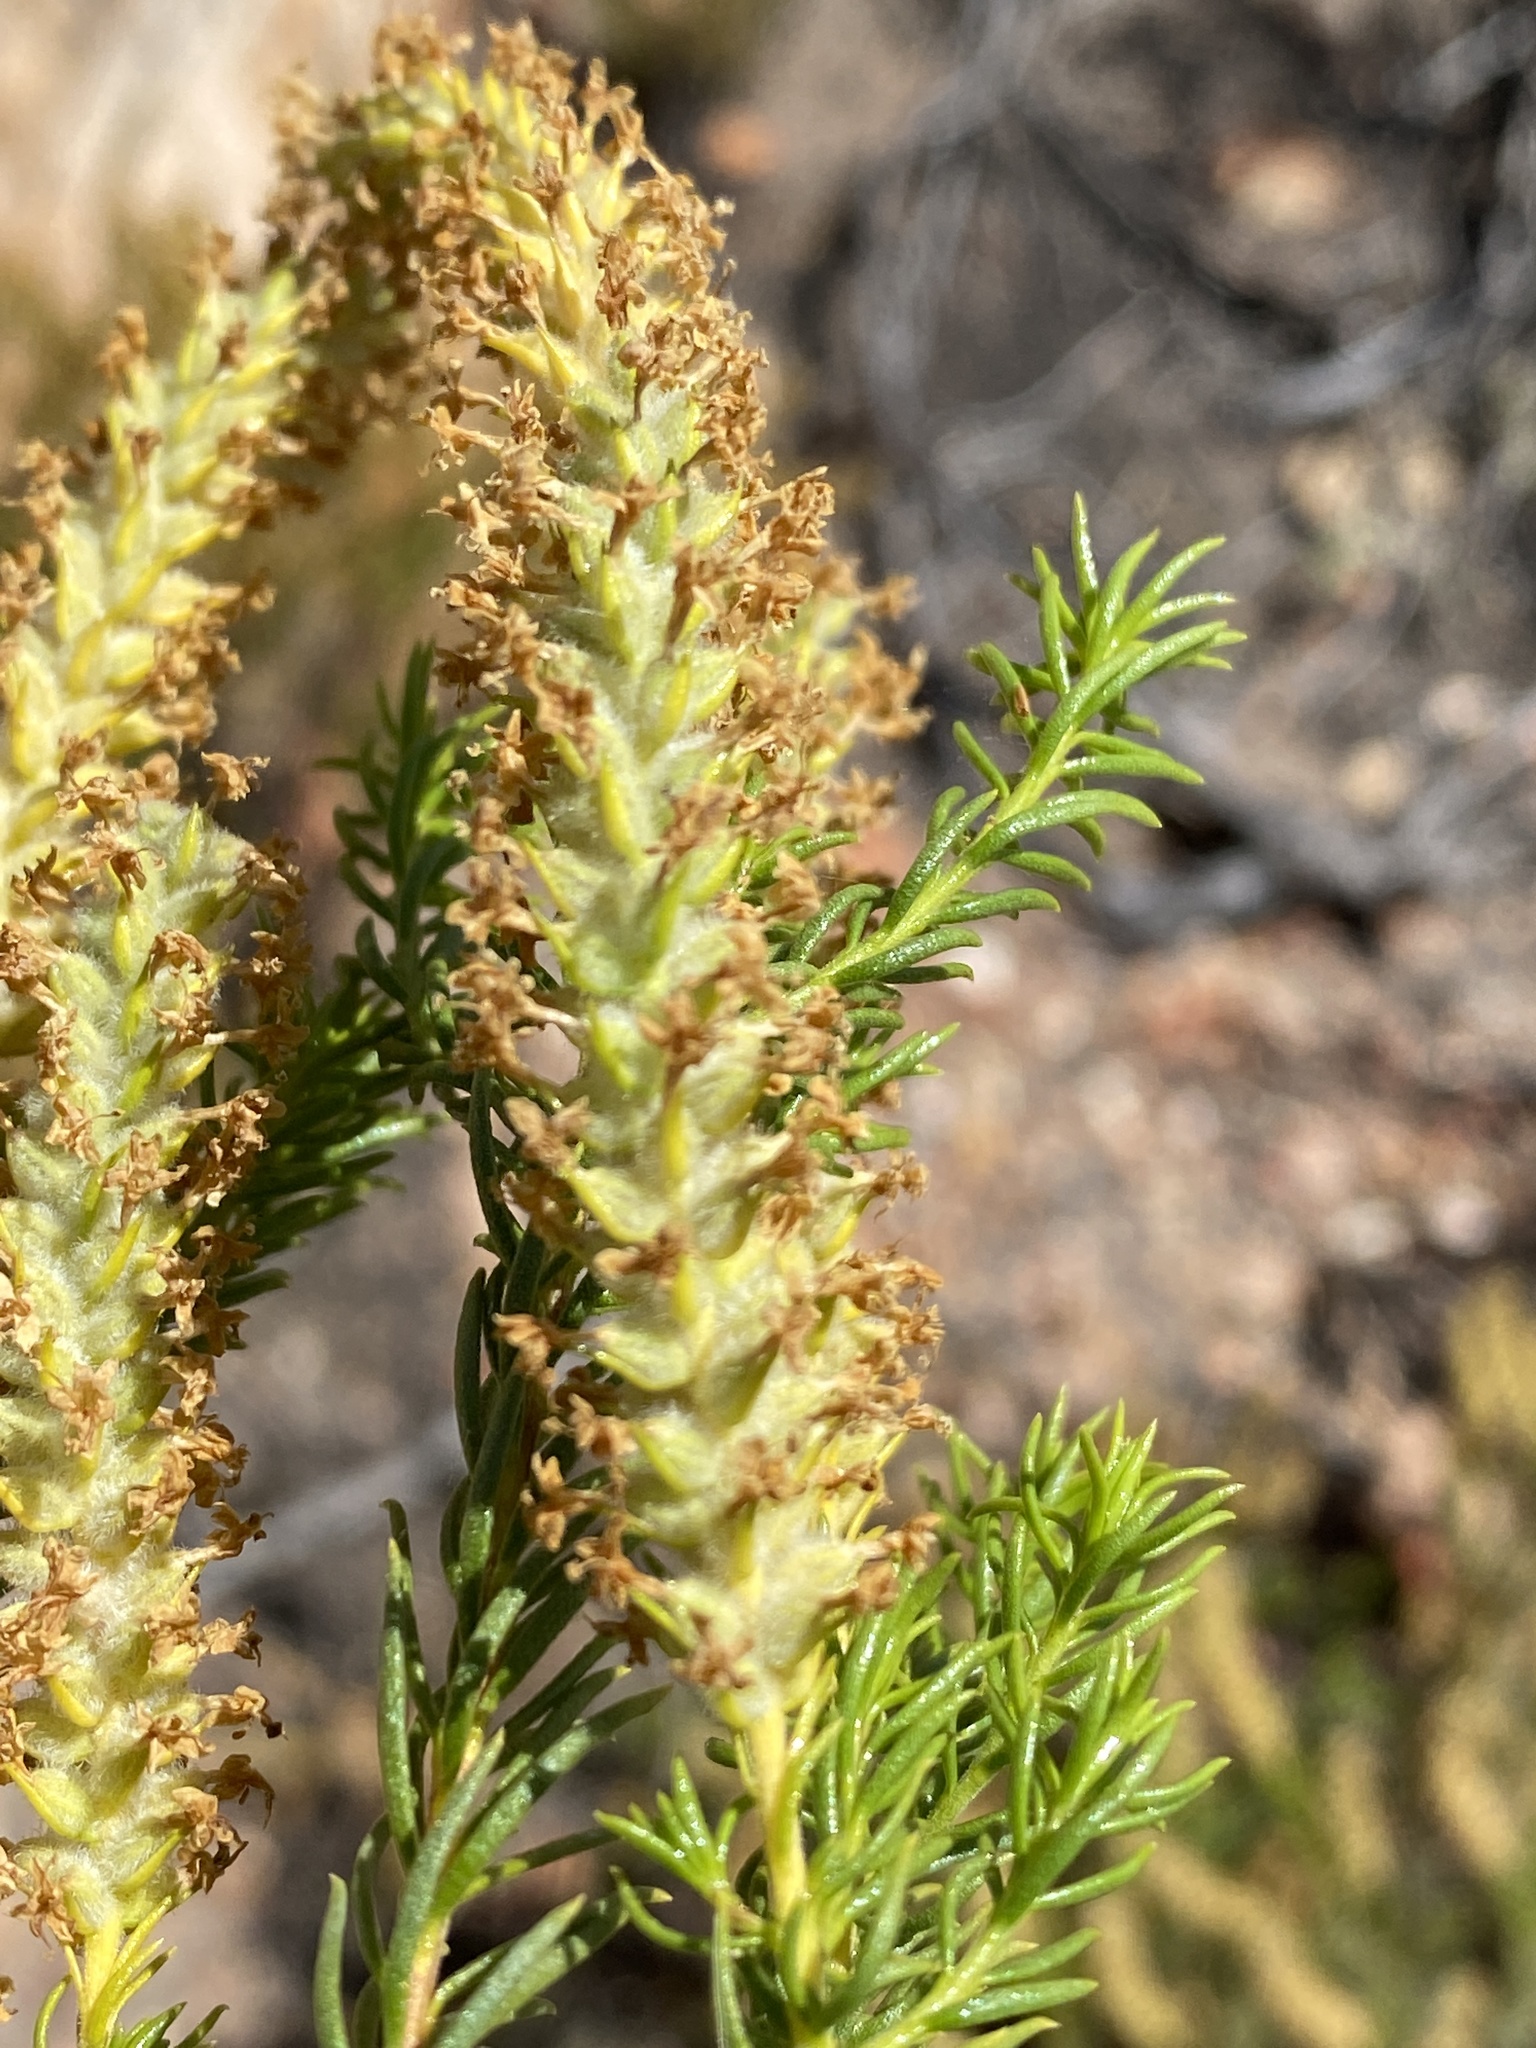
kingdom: Plantae
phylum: Tracheophyta
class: Magnoliopsida
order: Lamiales
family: Scrophulariaceae
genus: Selago
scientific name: Selago eckloniana
